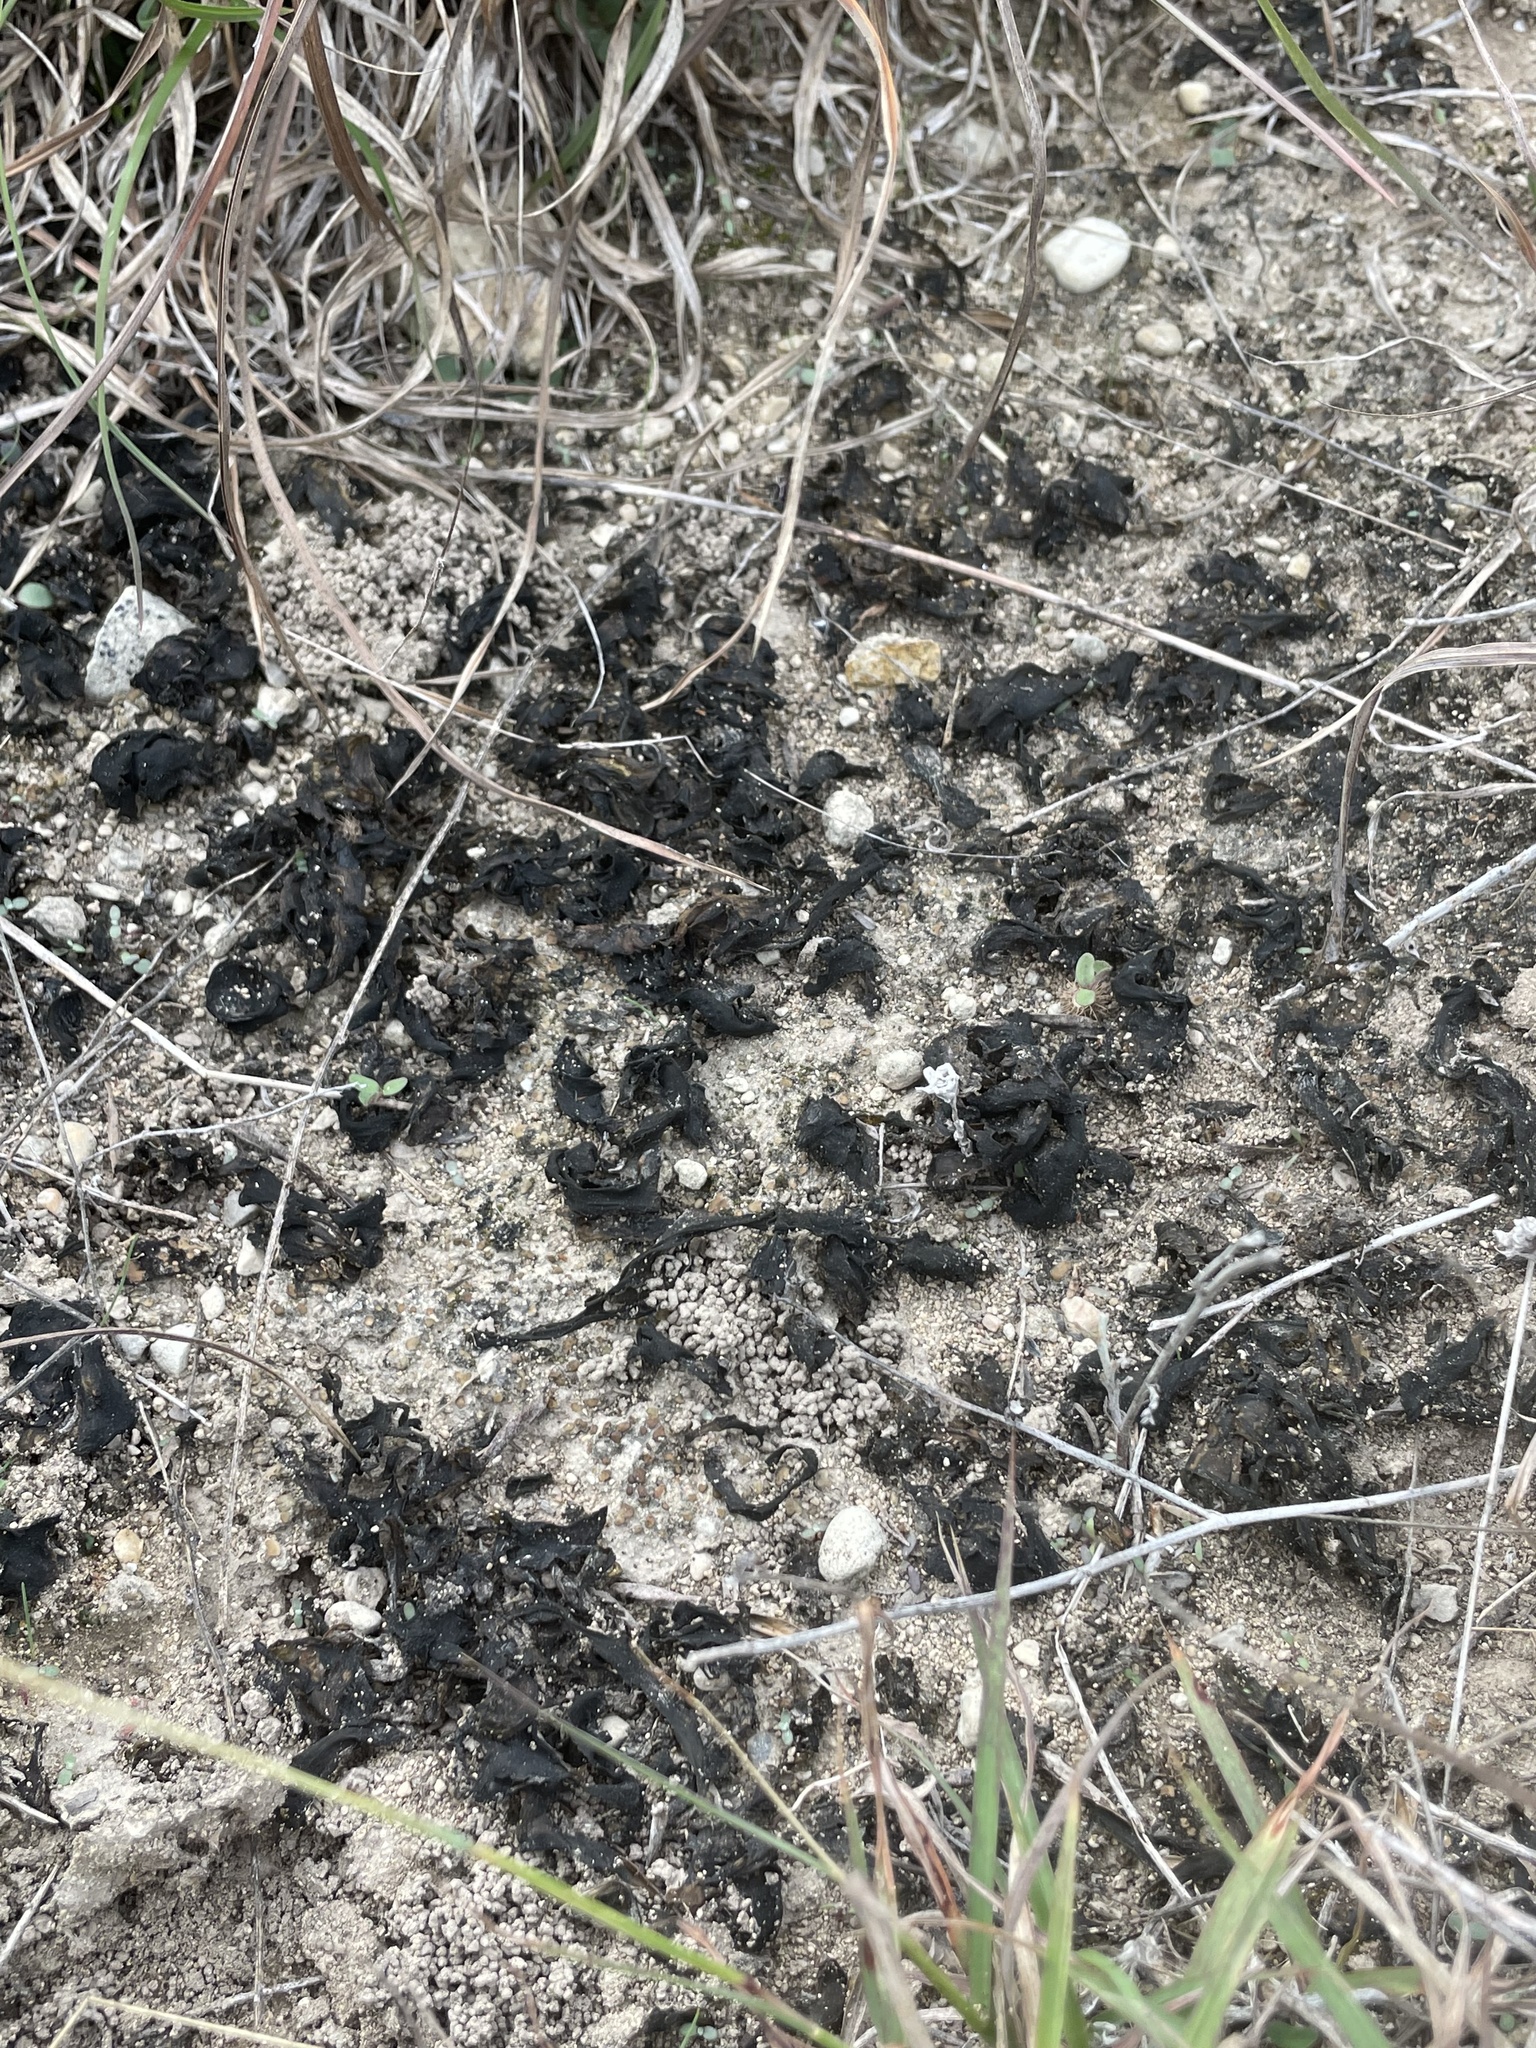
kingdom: Bacteria
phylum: Cyanobacteria
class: Cyanobacteriia
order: Cyanobacteriales
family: Nostocaceae
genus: Nostoc
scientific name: Nostoc commune
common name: Star jelly
